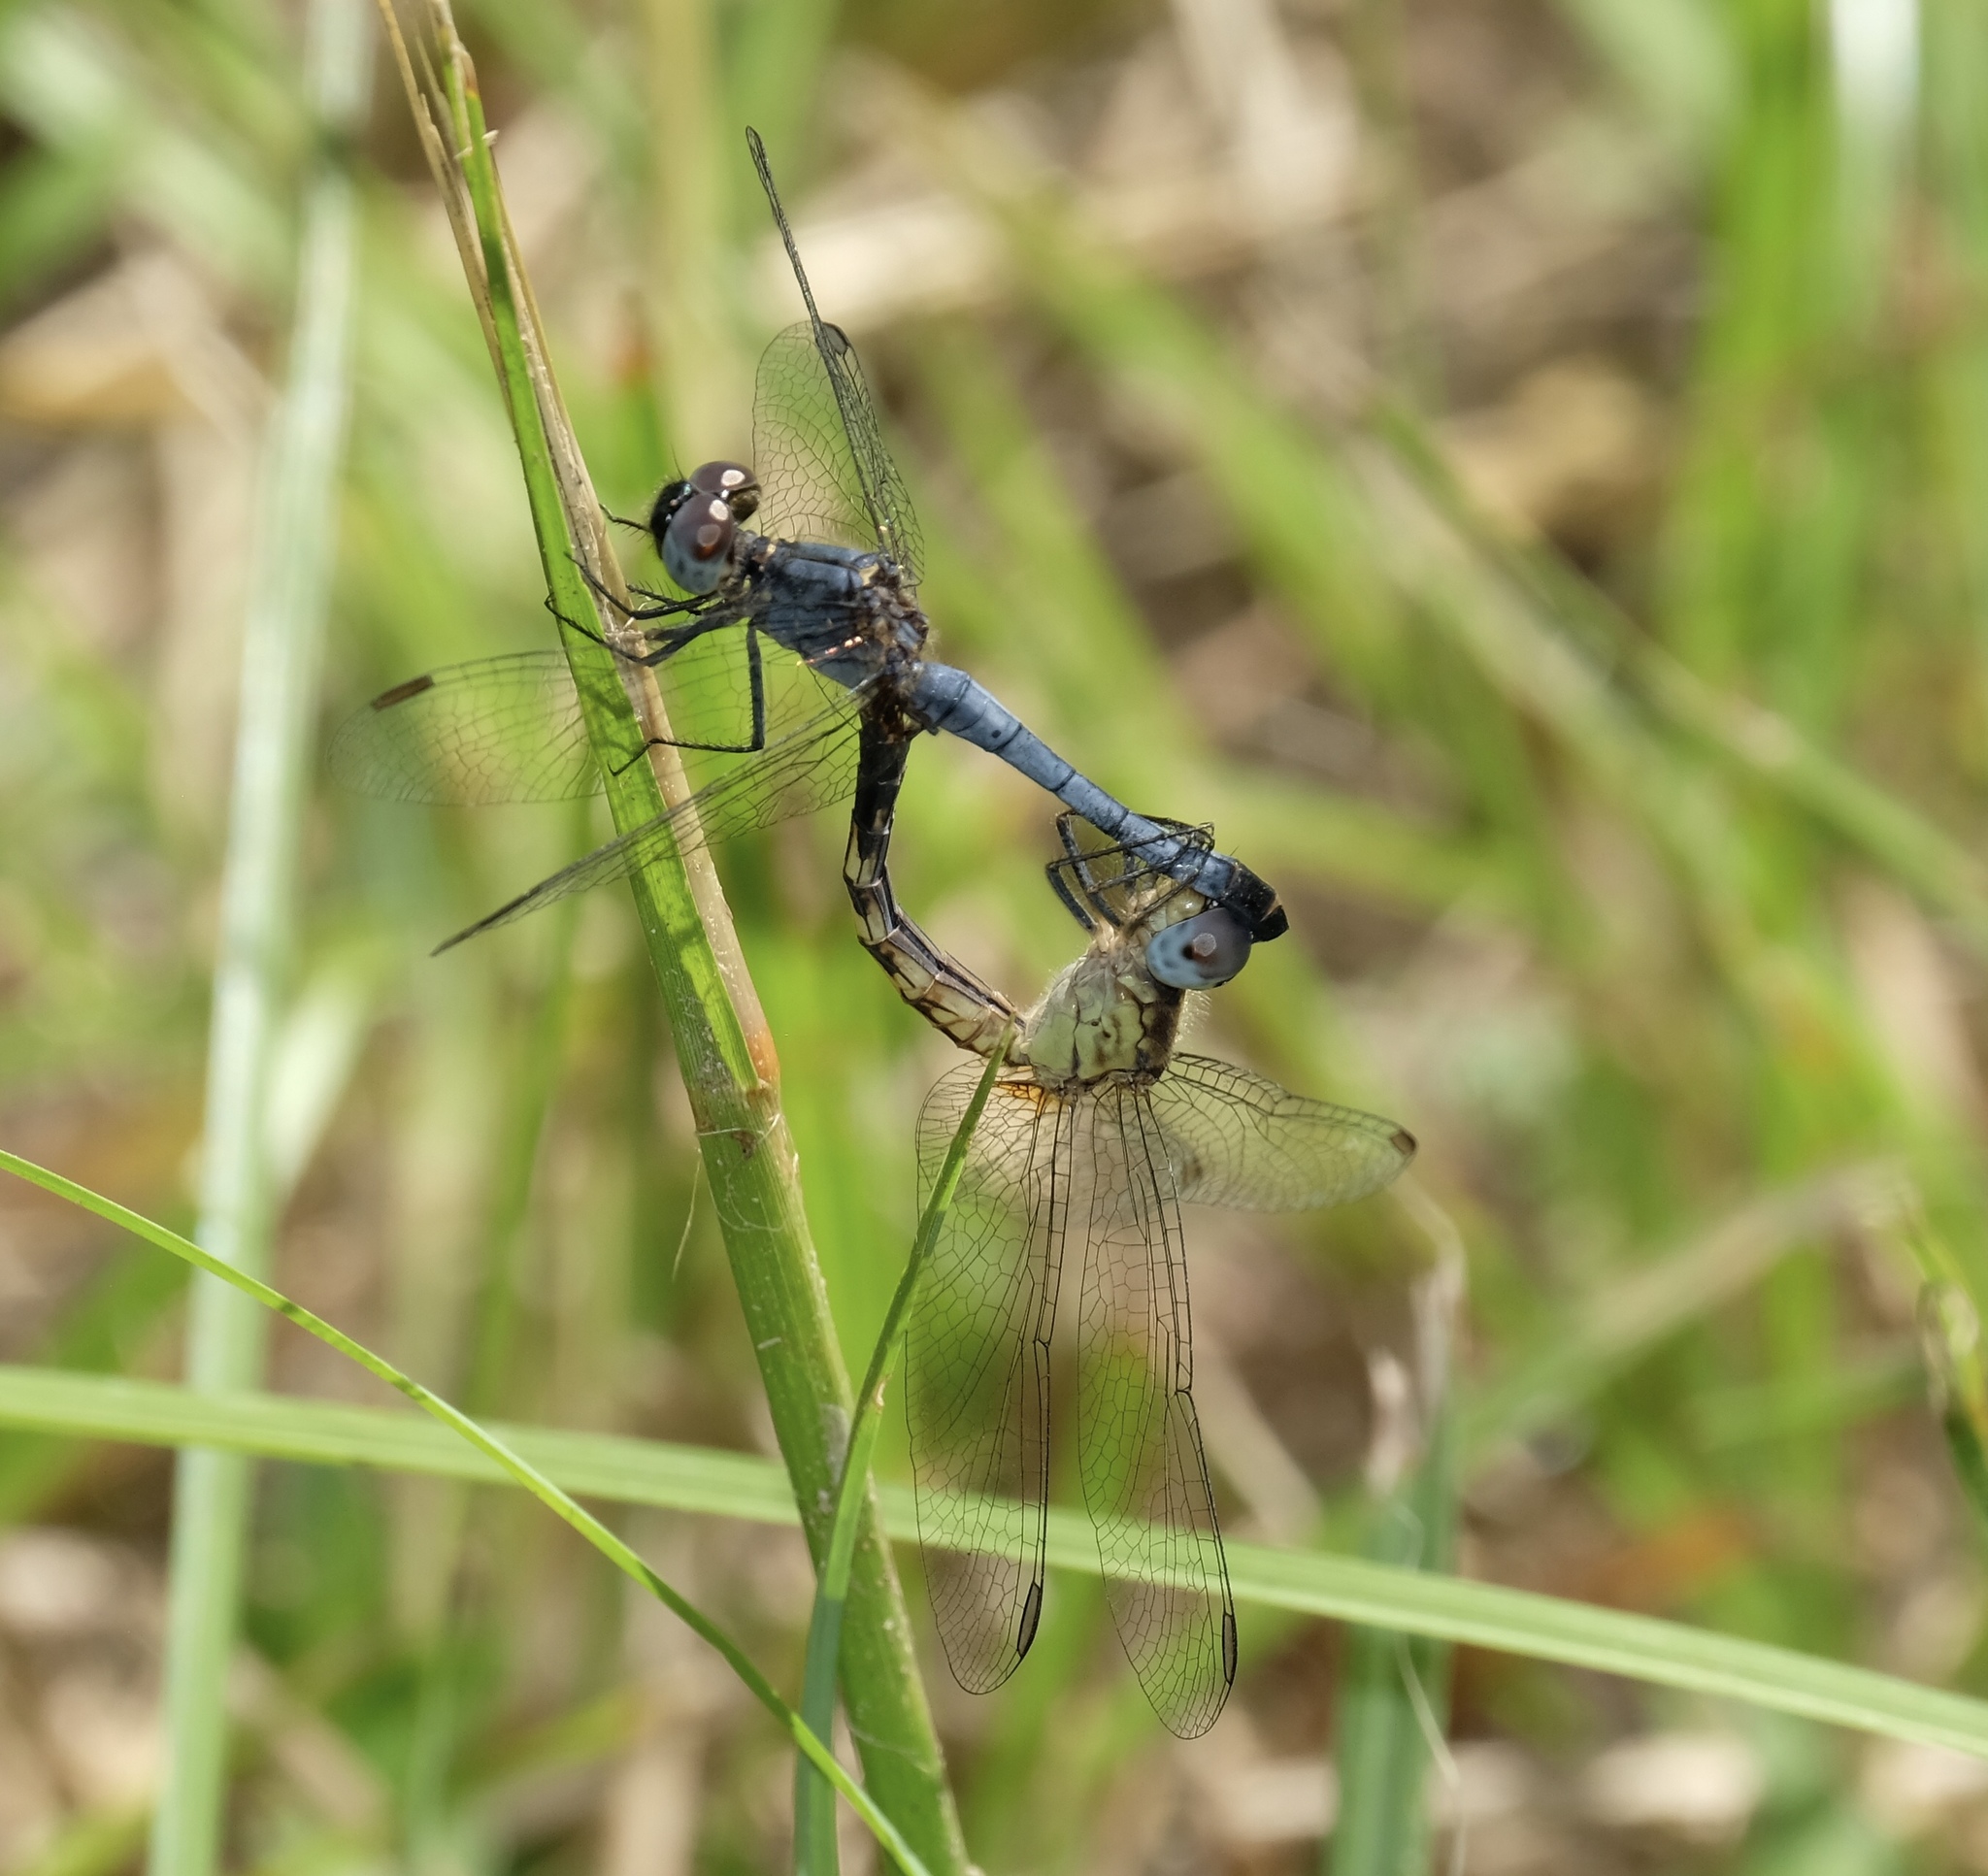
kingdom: Animalia
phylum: Arthropoda
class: Insecta
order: Odonata
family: Libellulidae
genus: Erythrodiplax
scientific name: Erythrodiplax minuscula
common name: Little blue dragonlet
